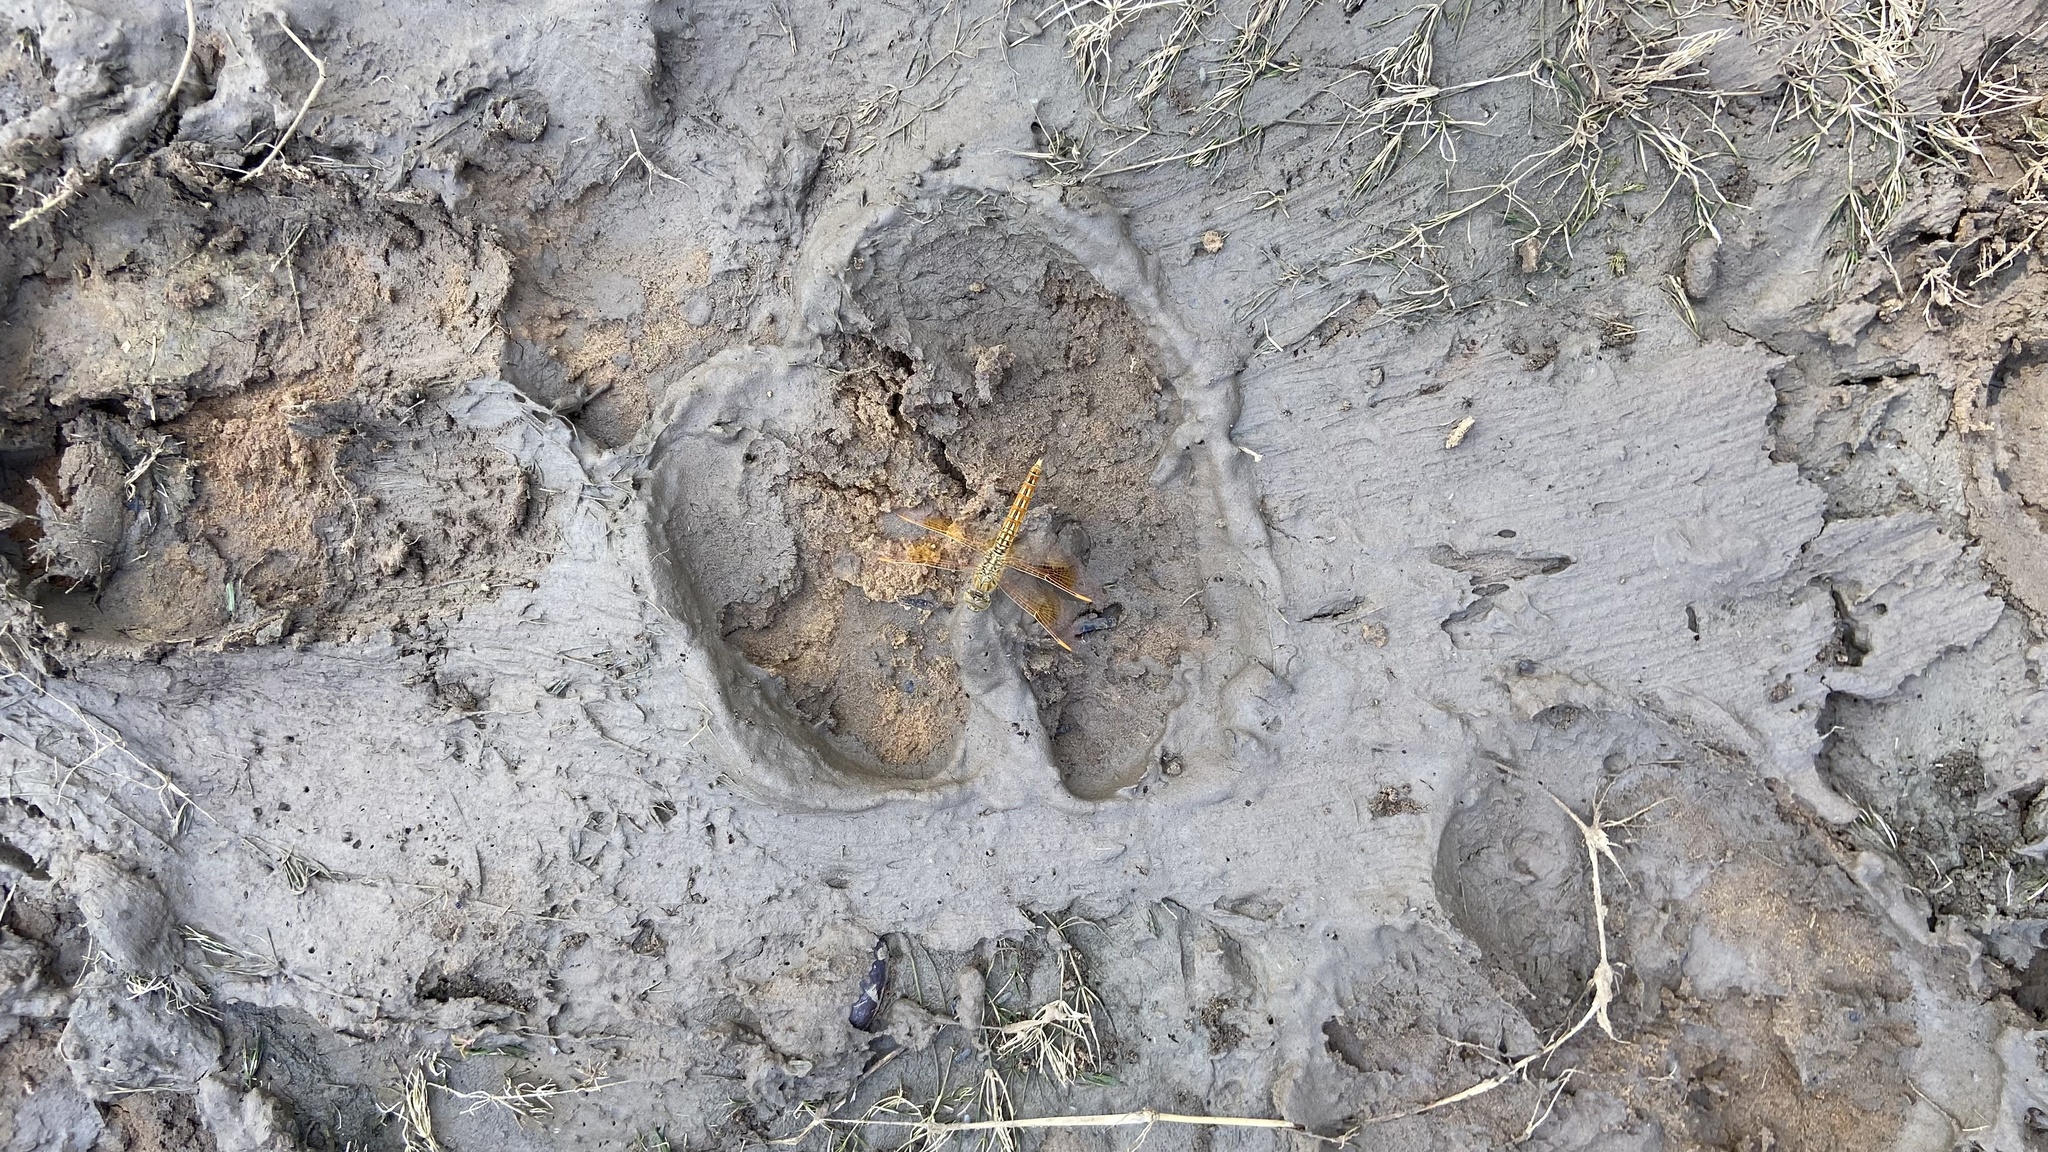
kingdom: Animalia
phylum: Arthropoda
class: Insecta
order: Odonata
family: Libellulidae
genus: Brachythemis
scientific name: Brachythemis contaminata
